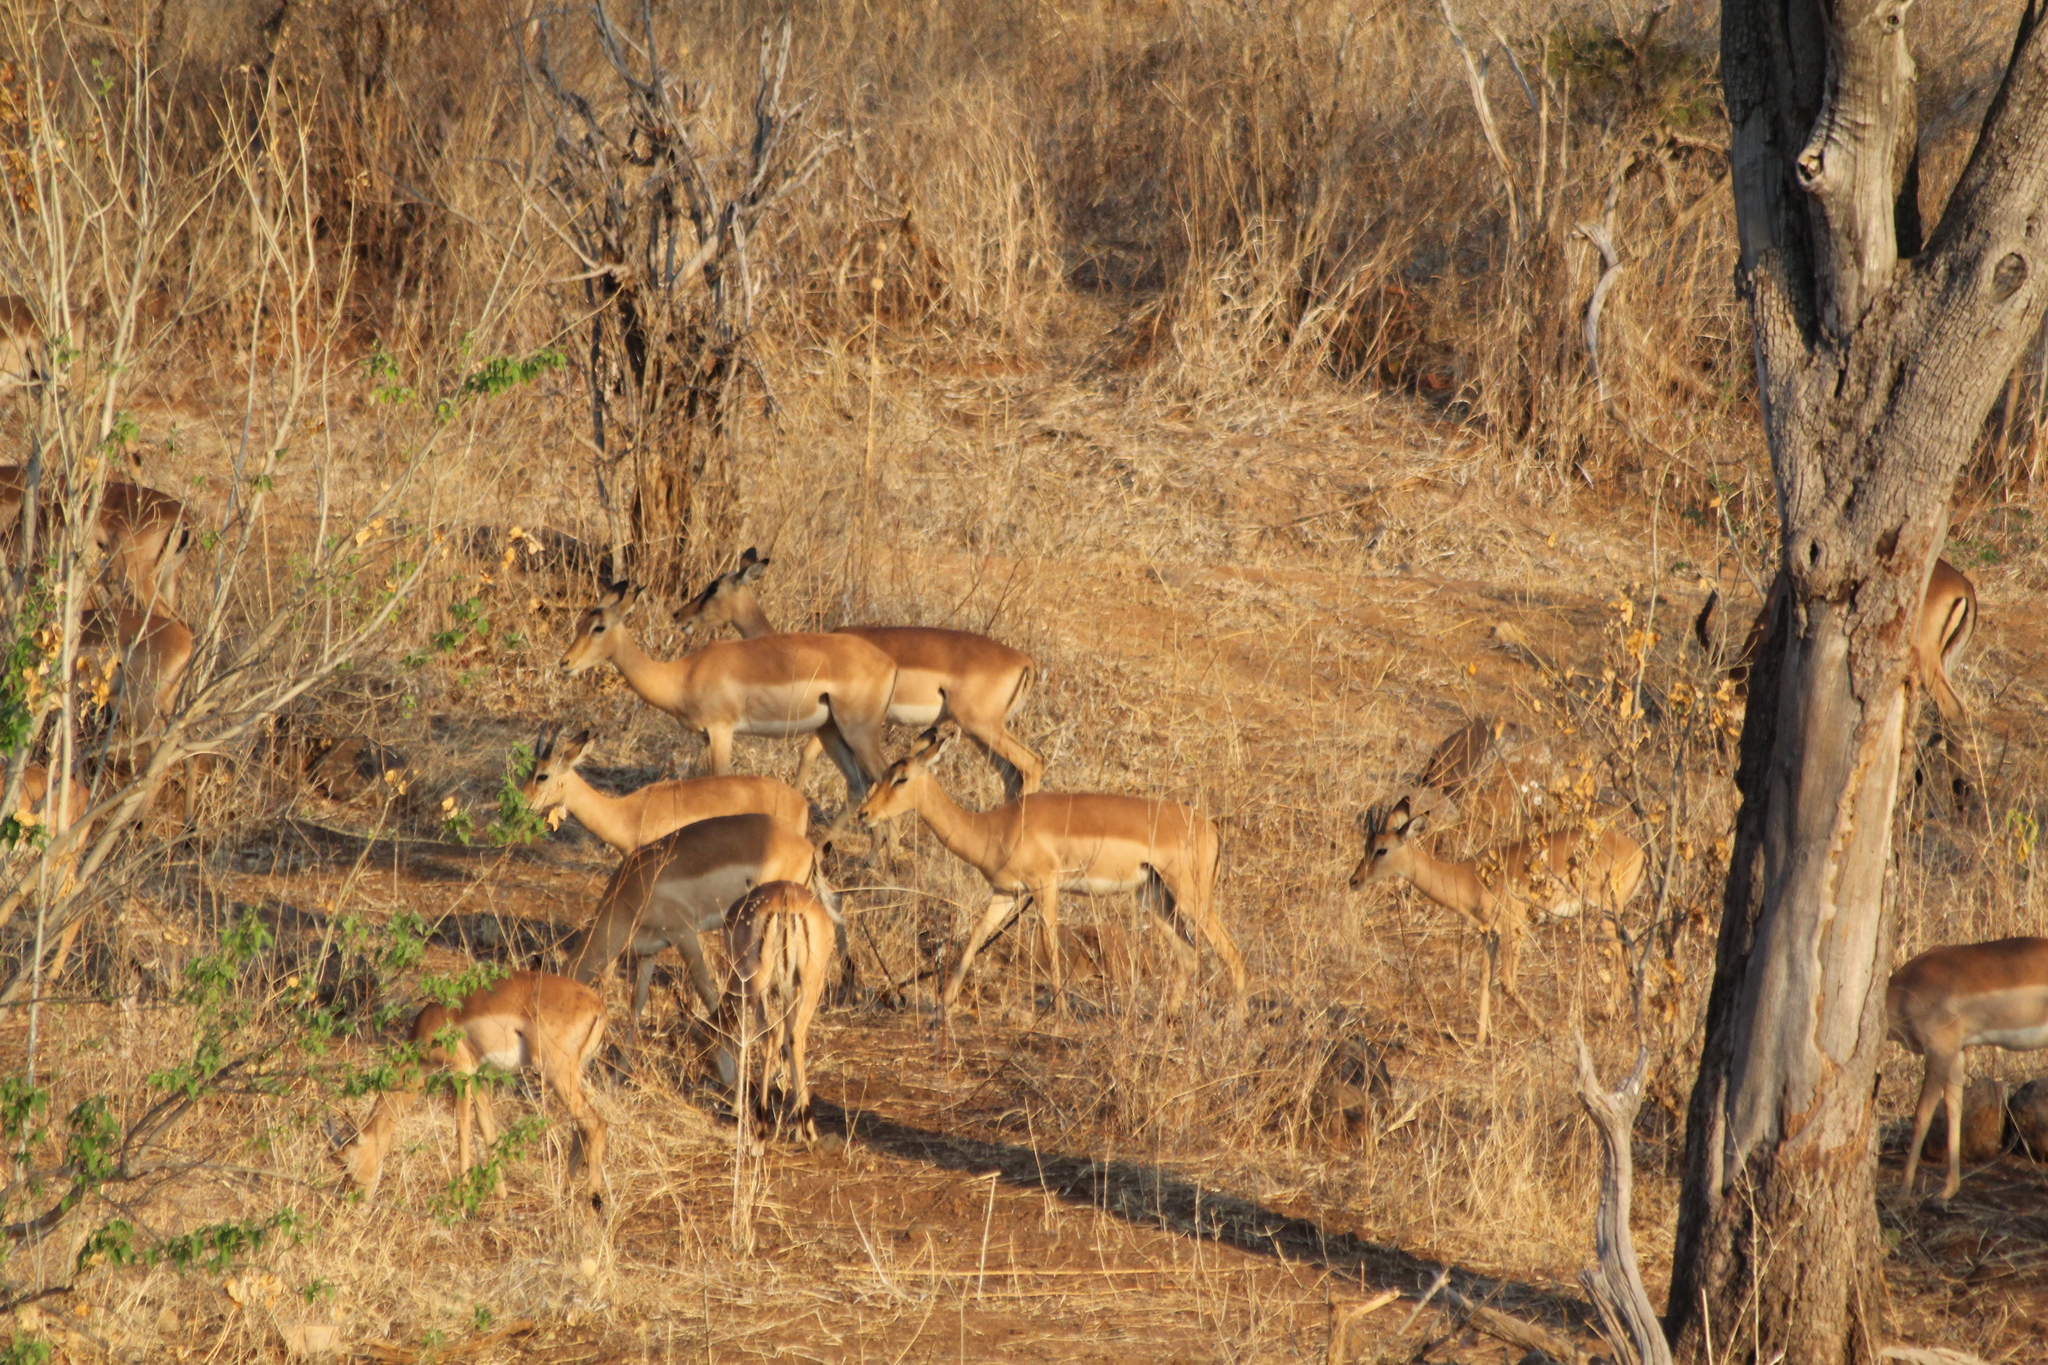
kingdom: Animalia
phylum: Chordata
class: Mammalia
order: Artiodactyla
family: Bovidae
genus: Aepyceros
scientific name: Aepyceros melampus
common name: Impala
